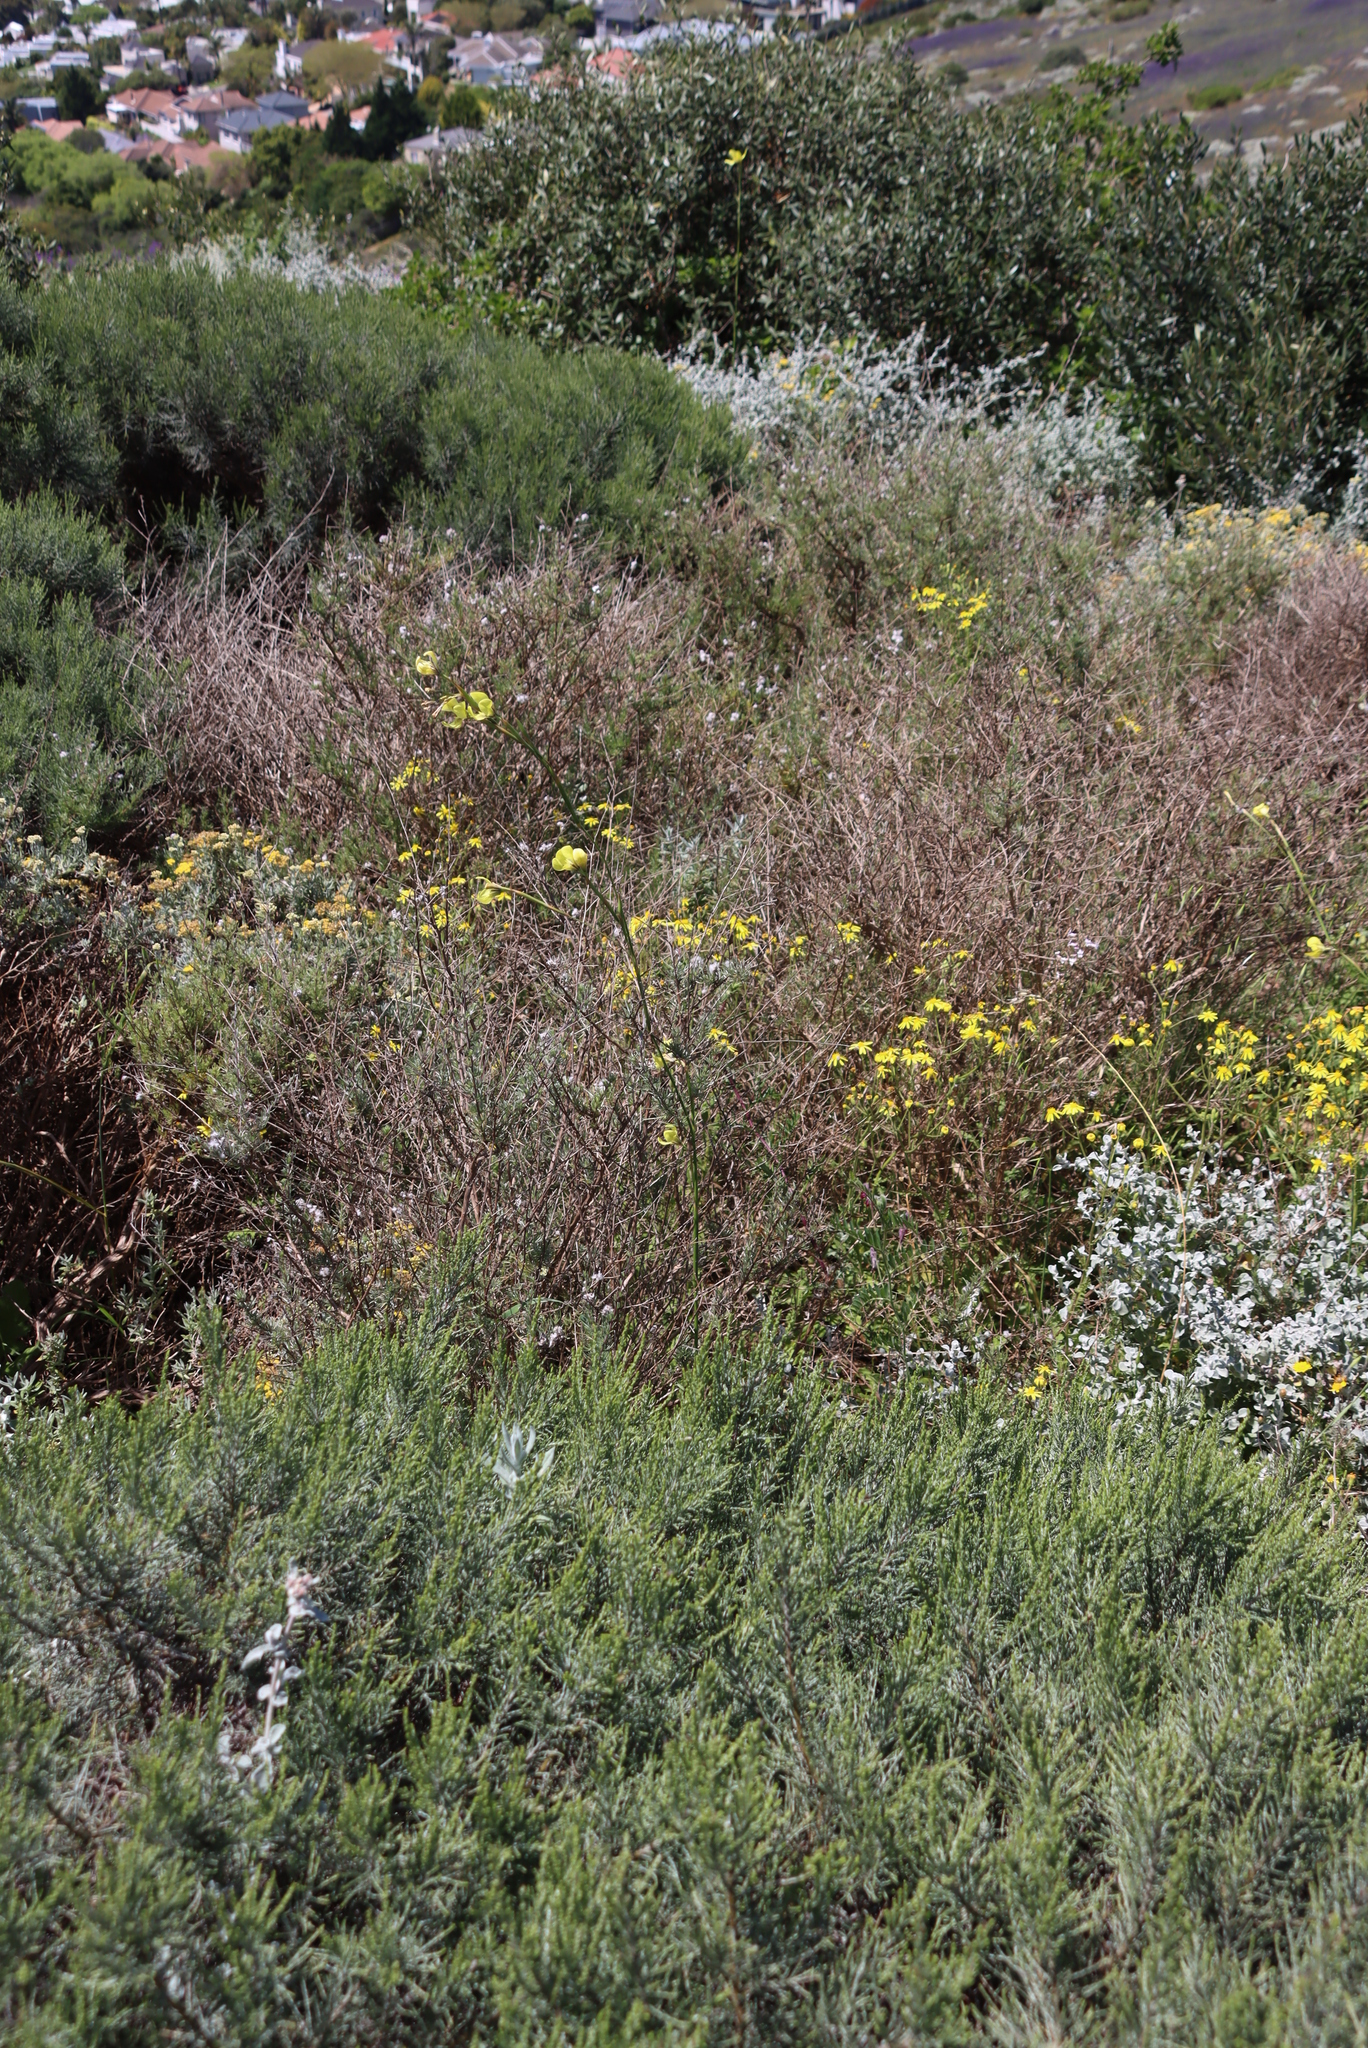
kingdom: Plantae
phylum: Tracheophyta
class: Liliopsida
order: Asparagales
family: Iridaceae
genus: Moraea
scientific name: Moraea bellendenii
